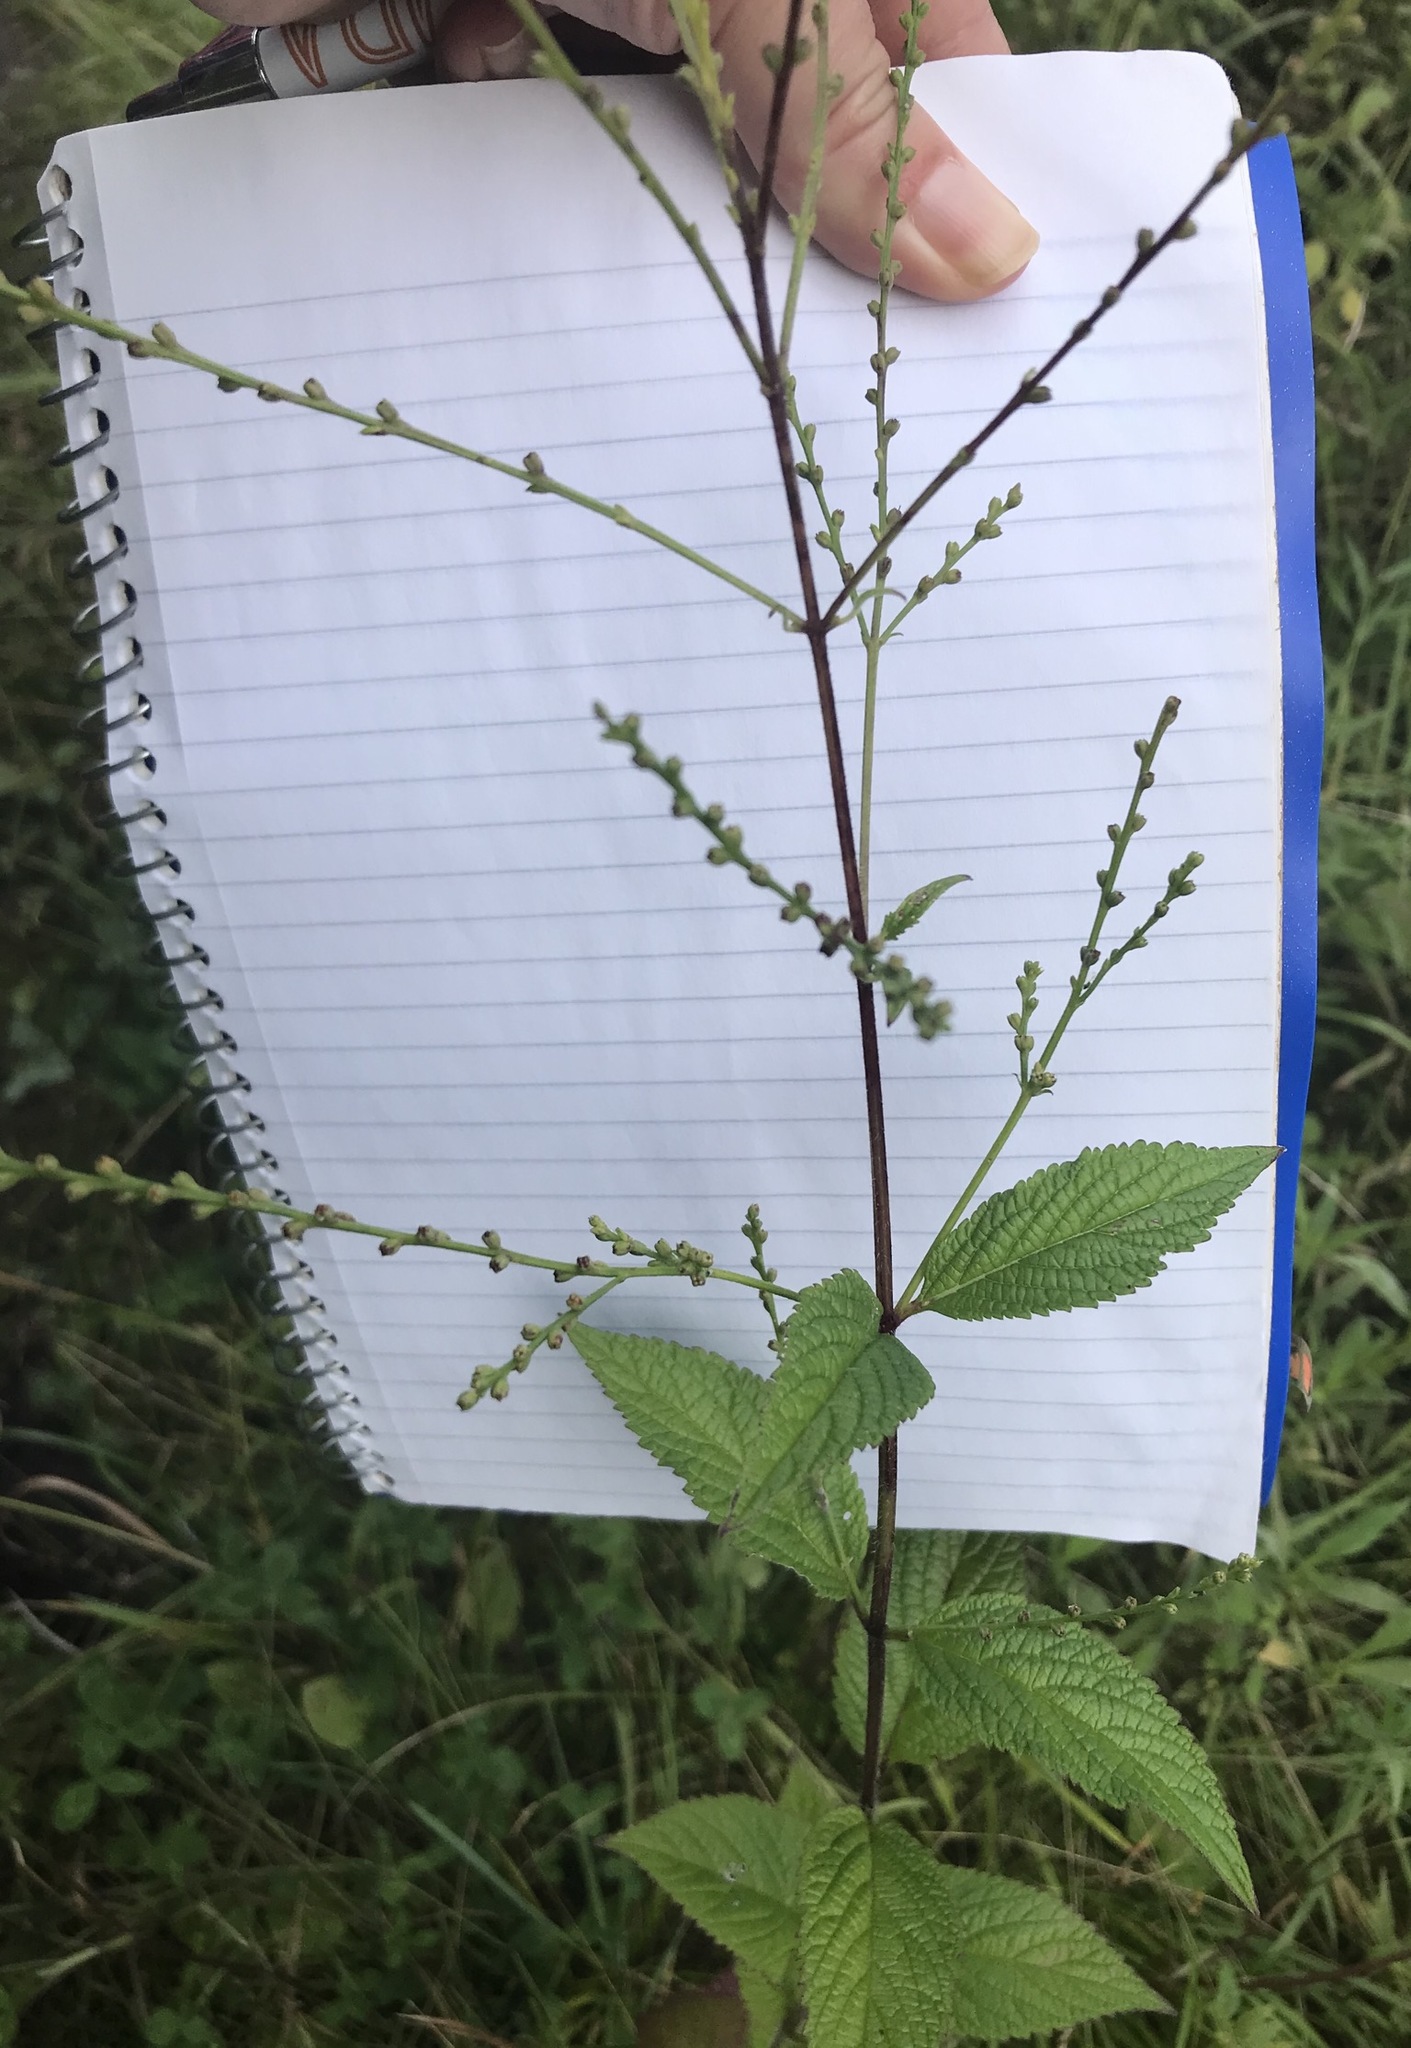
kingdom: Plantae
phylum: Tracheophyta
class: Magnoliopsida
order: Lamiales
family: Verbenaceae
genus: Verbena
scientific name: Verbena urticifolia
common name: Nettle-leaved vervain
